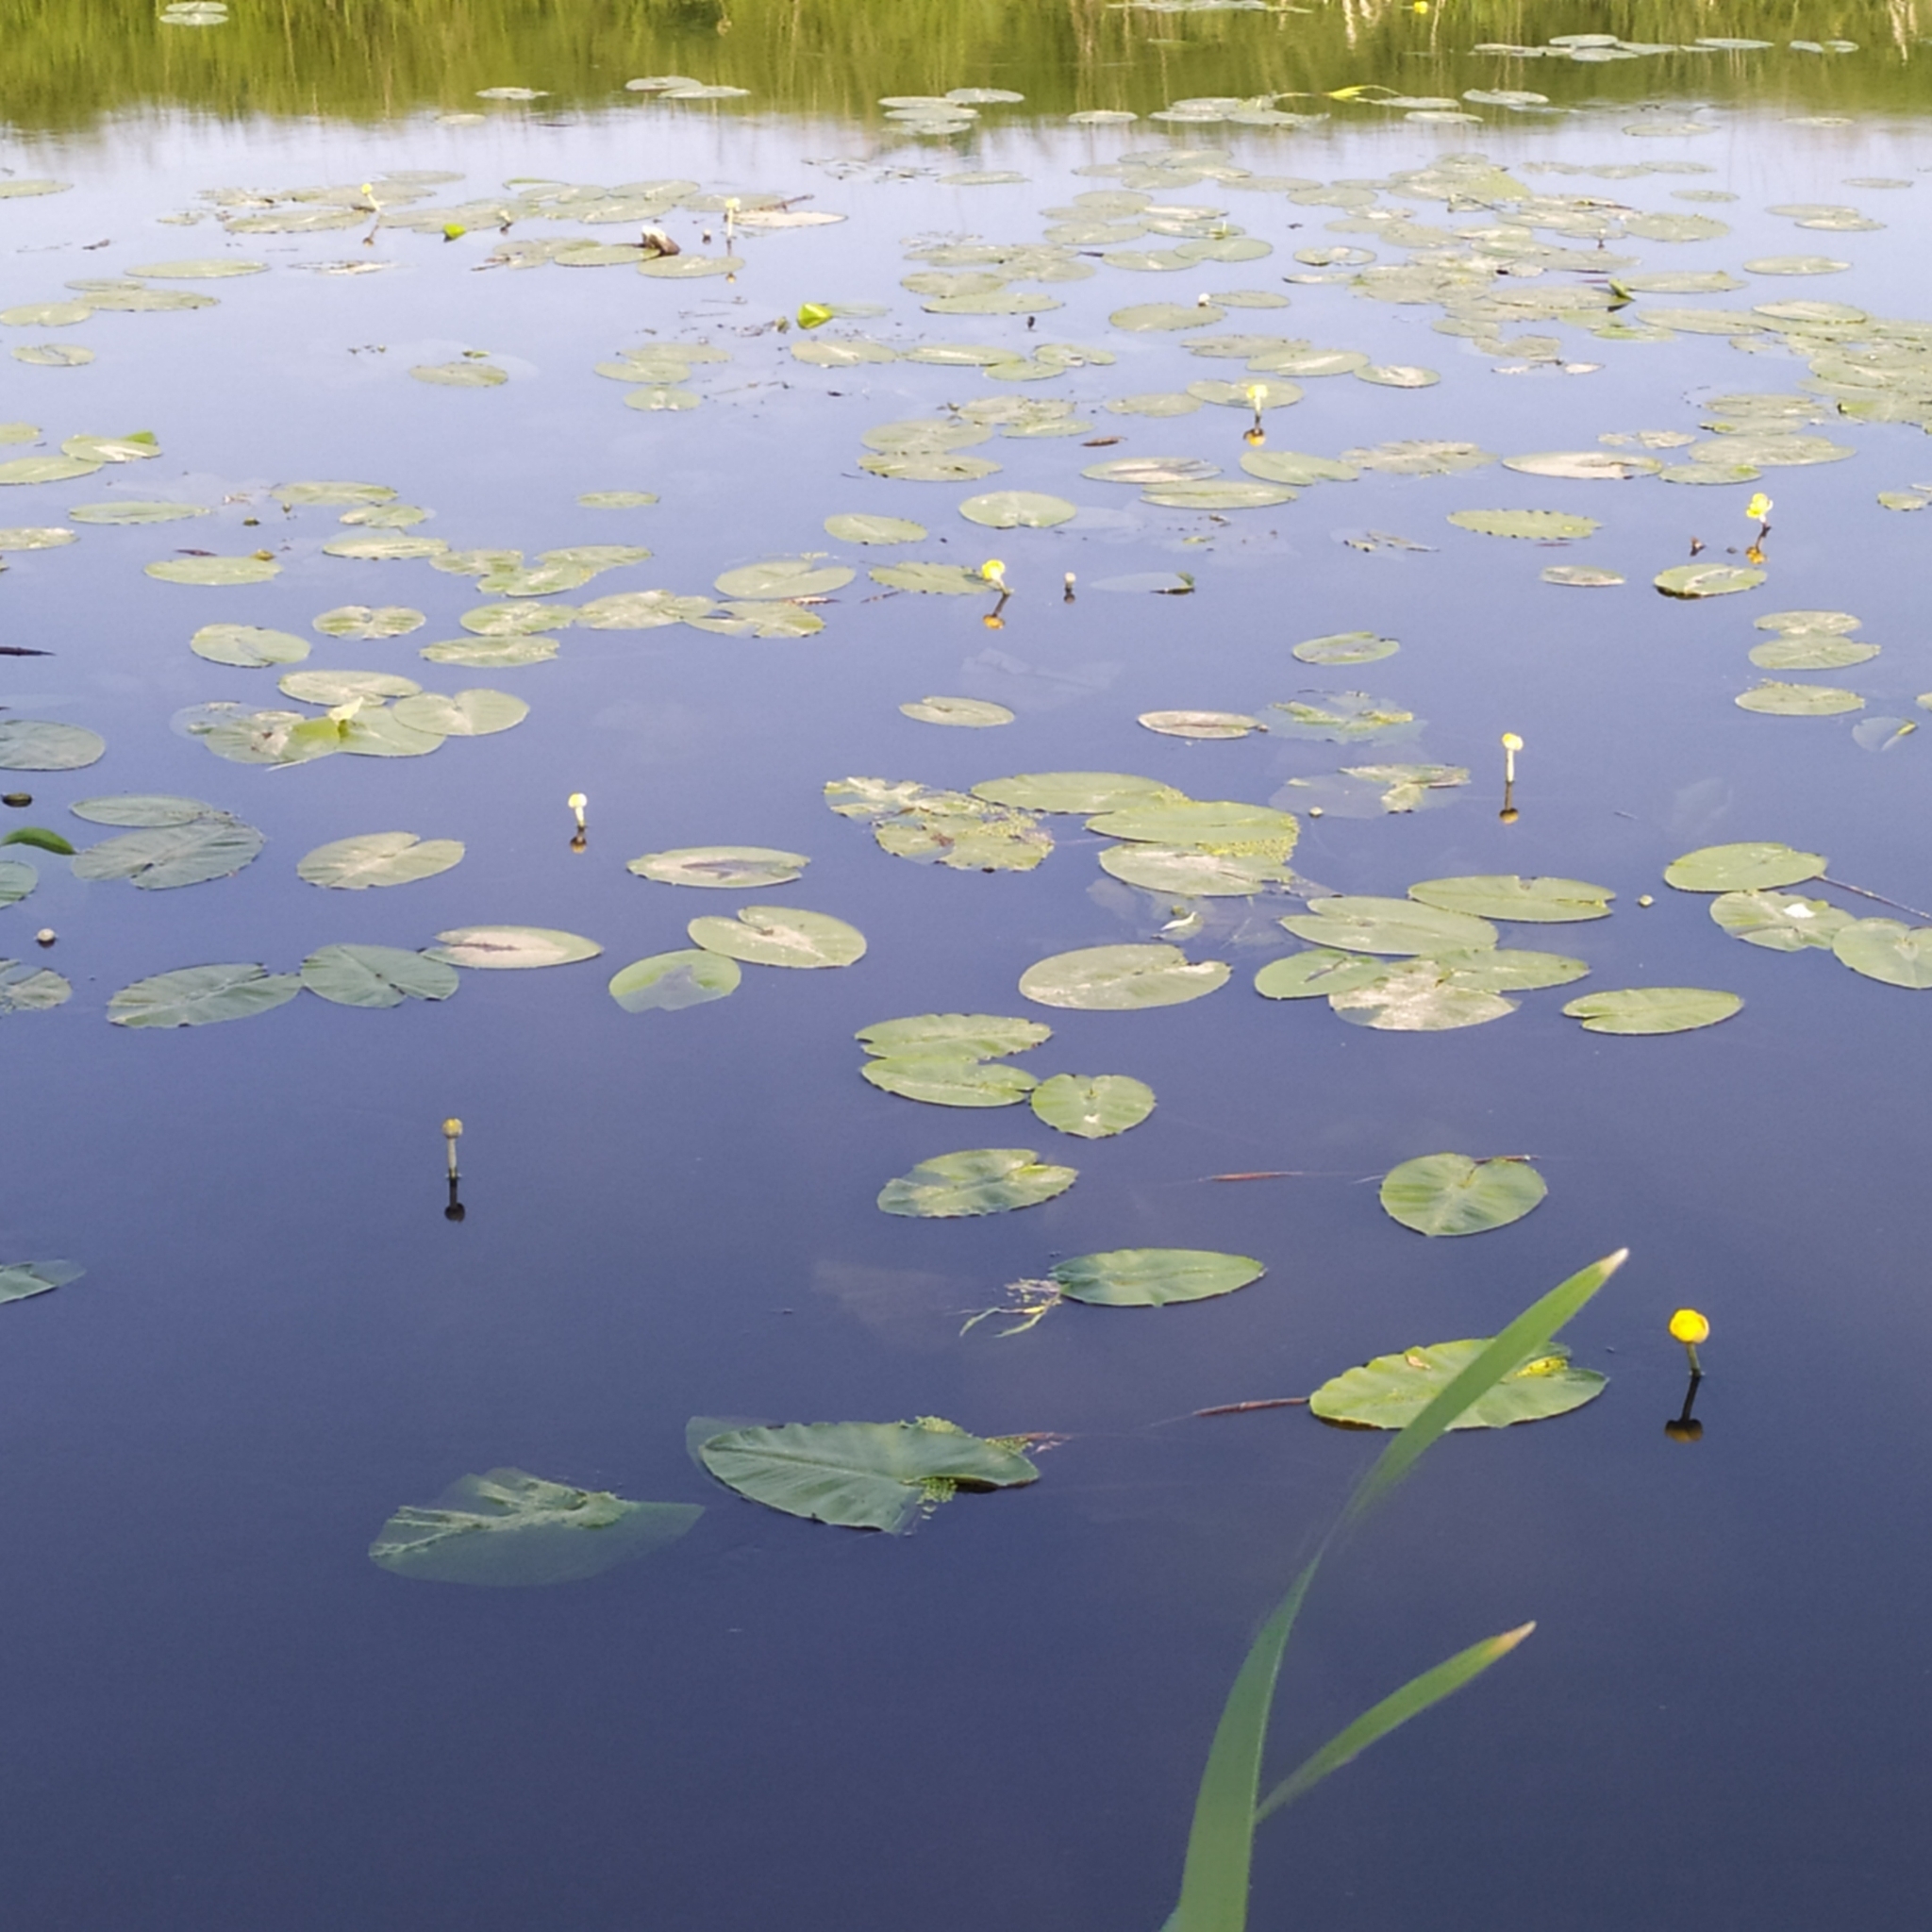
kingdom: Plantae
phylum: Tracheophyta
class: Magnoliopsida
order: Nymphaeales
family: Nymphaeaceae
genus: Nuphar
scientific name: Nuphar lutea
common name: Yellow water-lily
